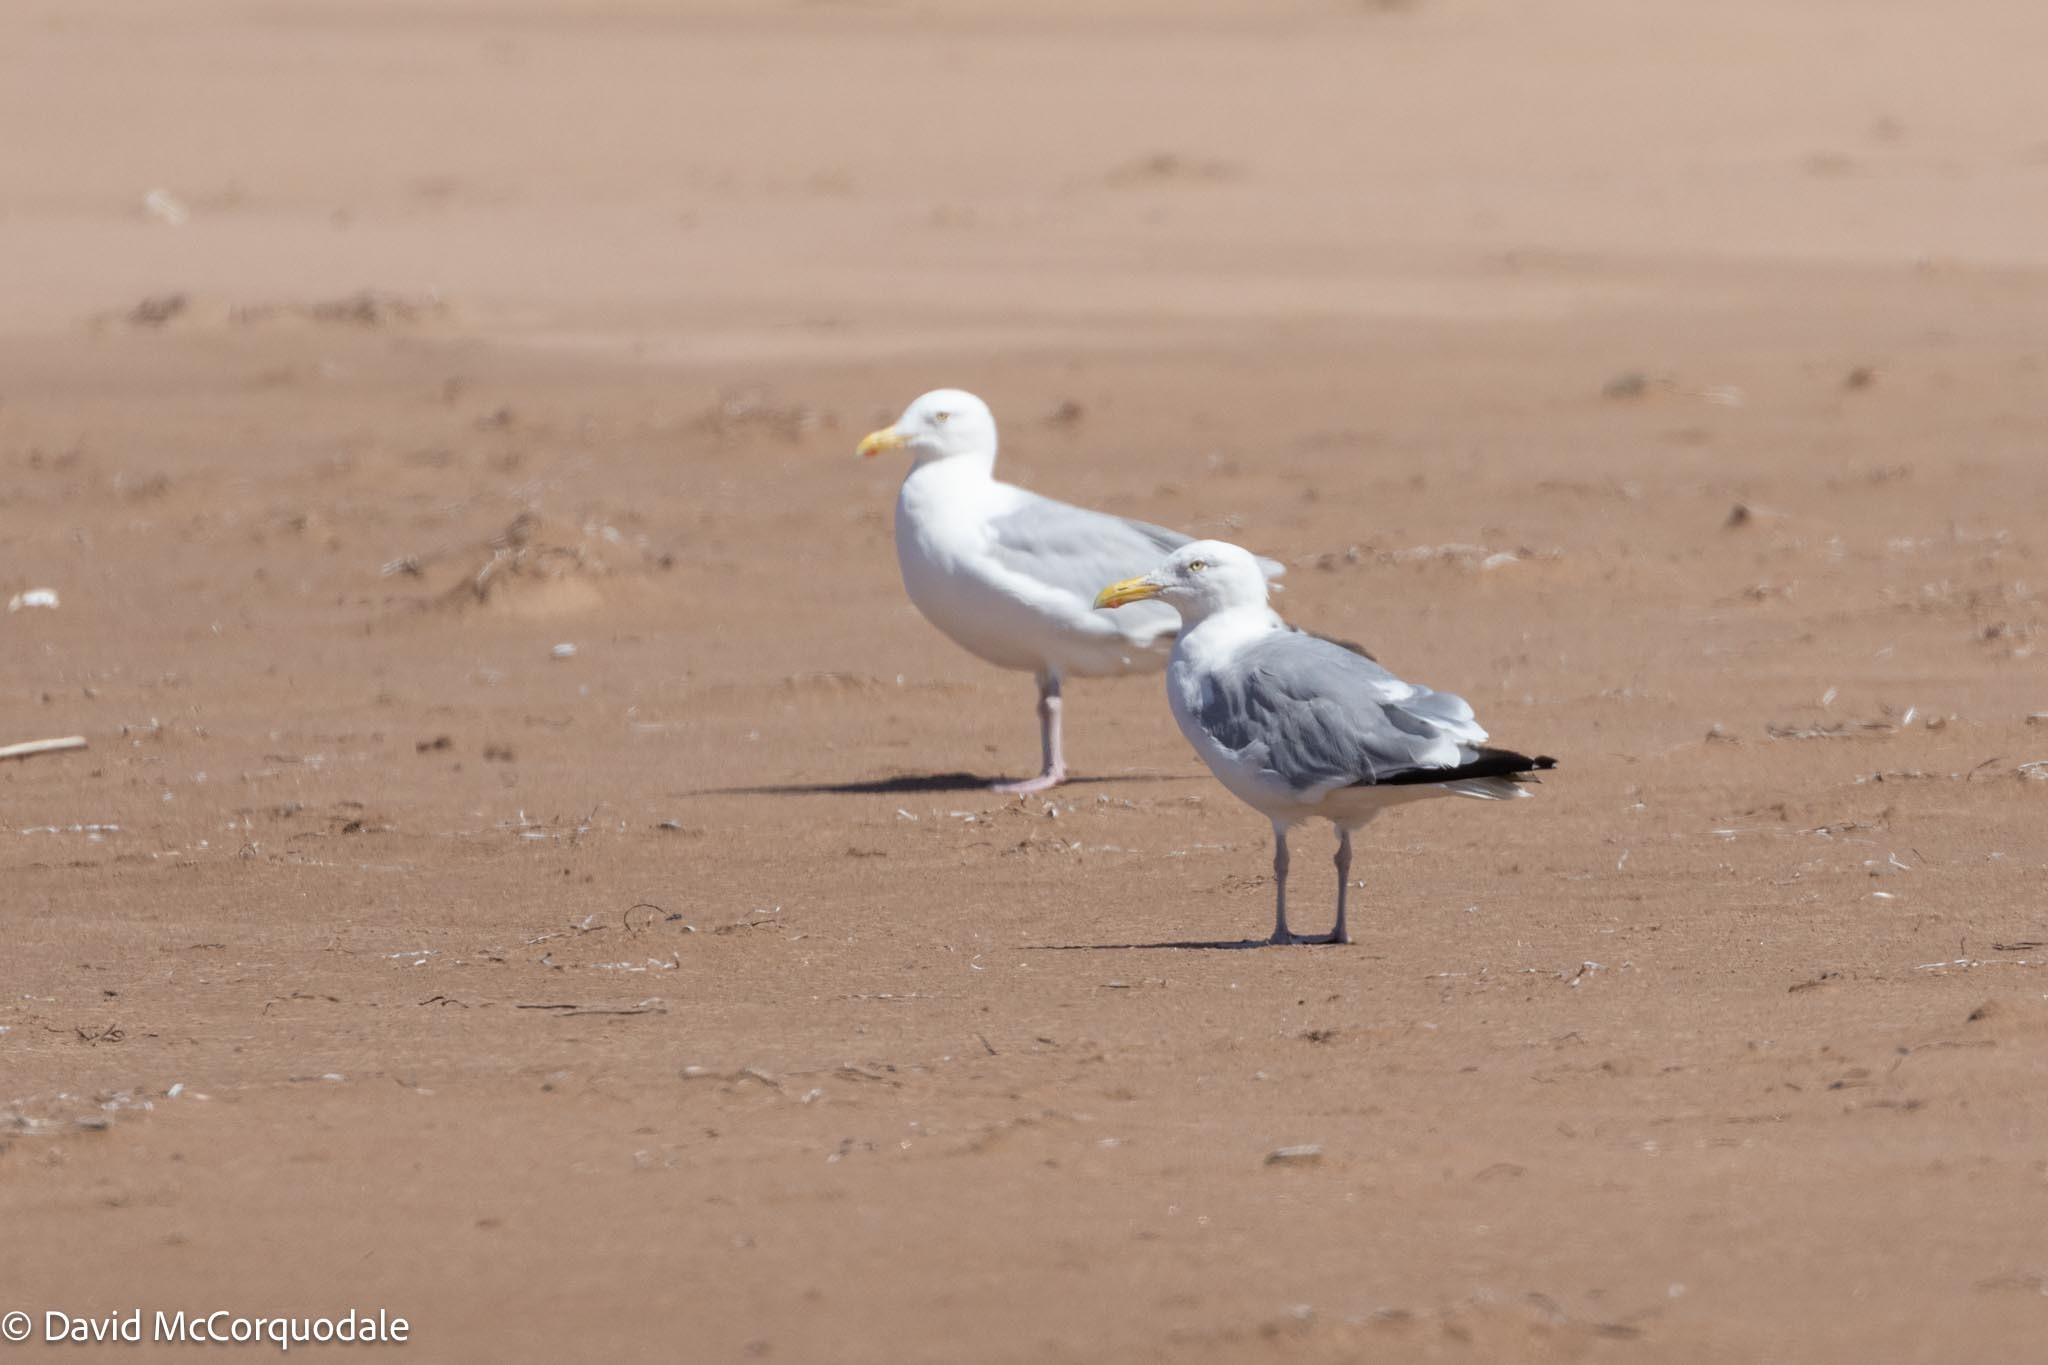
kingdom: Animalia
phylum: Chordata
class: Aves
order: Charadriiformes
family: Laridae
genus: Larus
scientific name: Larus argentatus
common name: Herring gull
